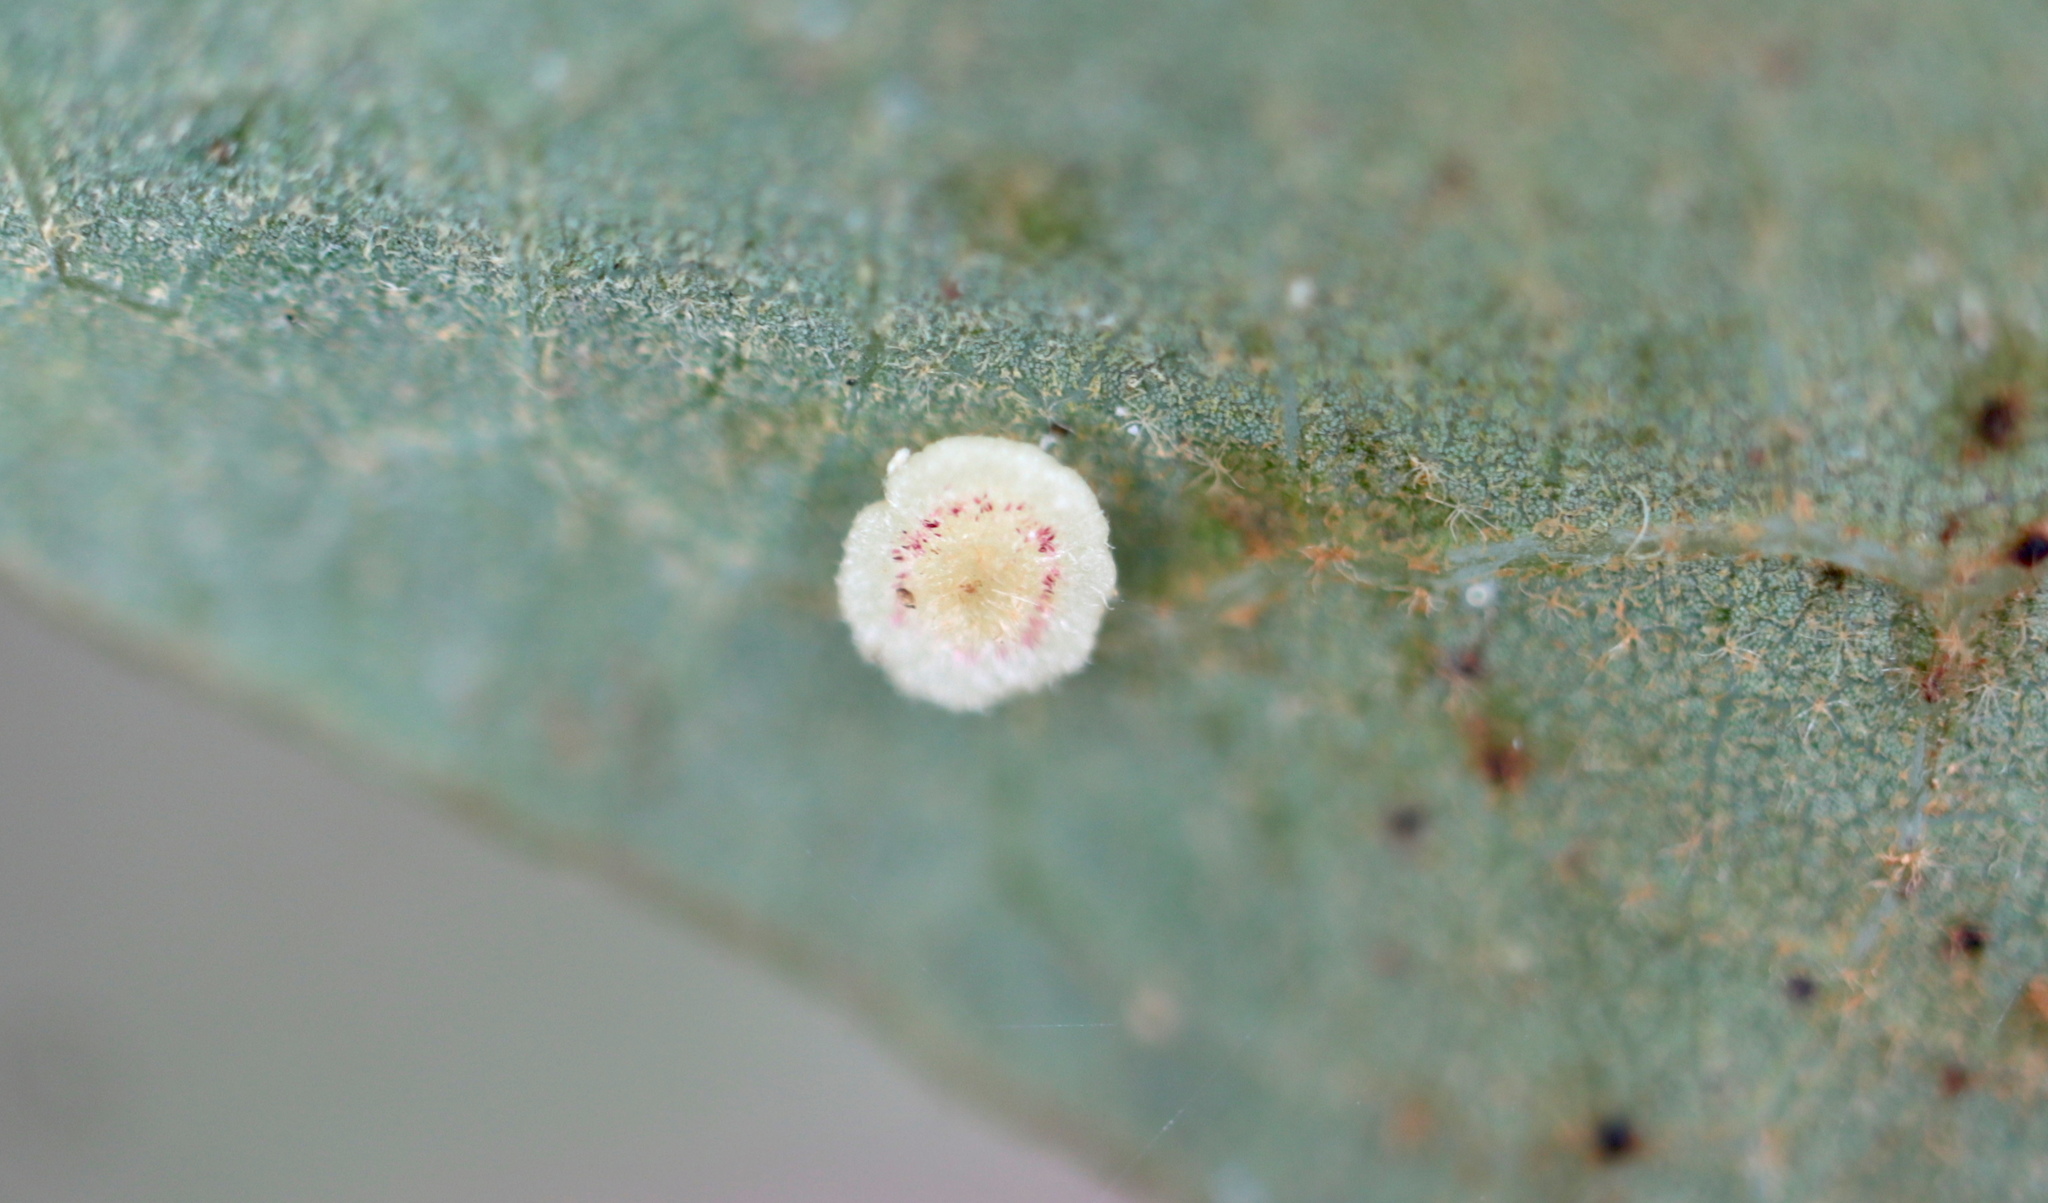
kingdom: Animalia
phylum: Arthropoda
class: Insecta
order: Hymenoptera
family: Cynipidae
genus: Neuroterus
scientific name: Neuroterus
